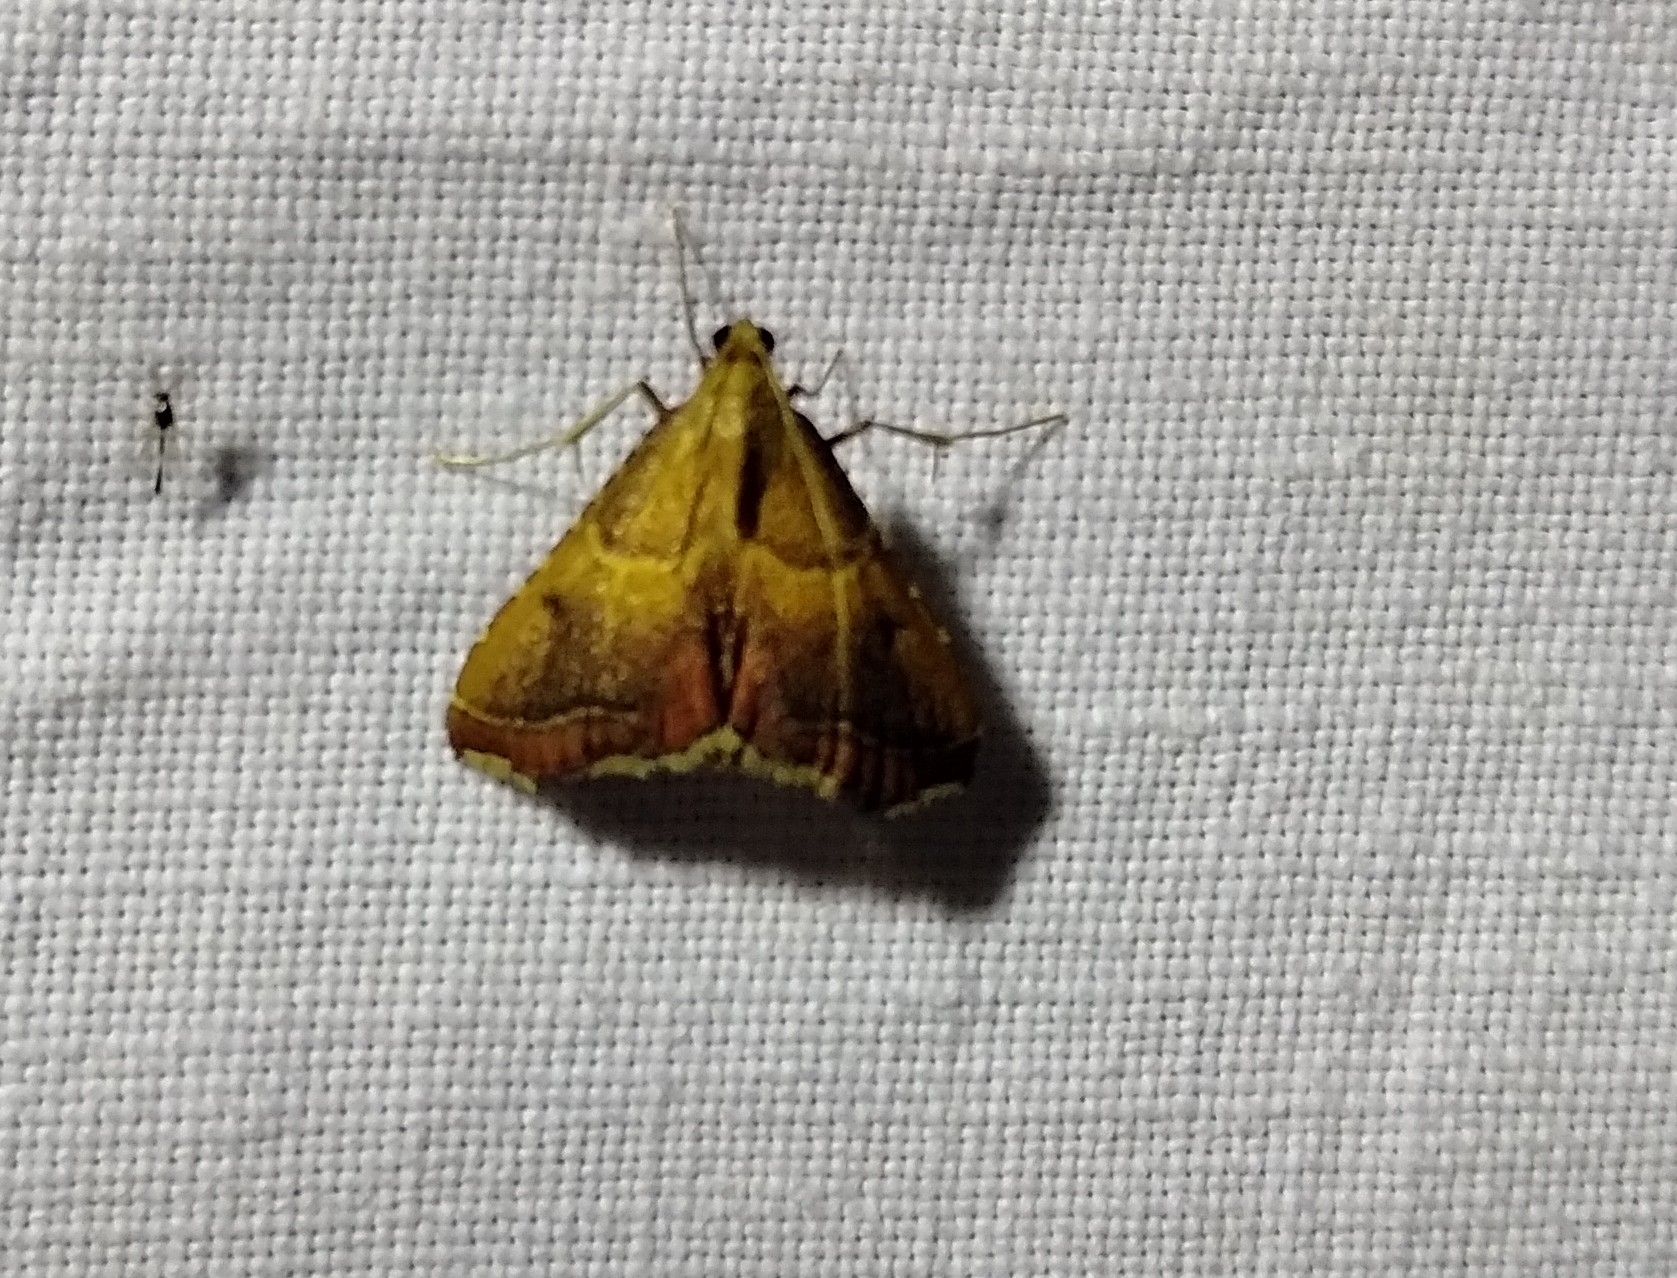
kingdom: Animalia
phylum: Arthropoda
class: Insecta
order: Lepidoptera
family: Pyralidae
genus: Endotricha
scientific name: Endotricha flammealis
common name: Rosy tabby
